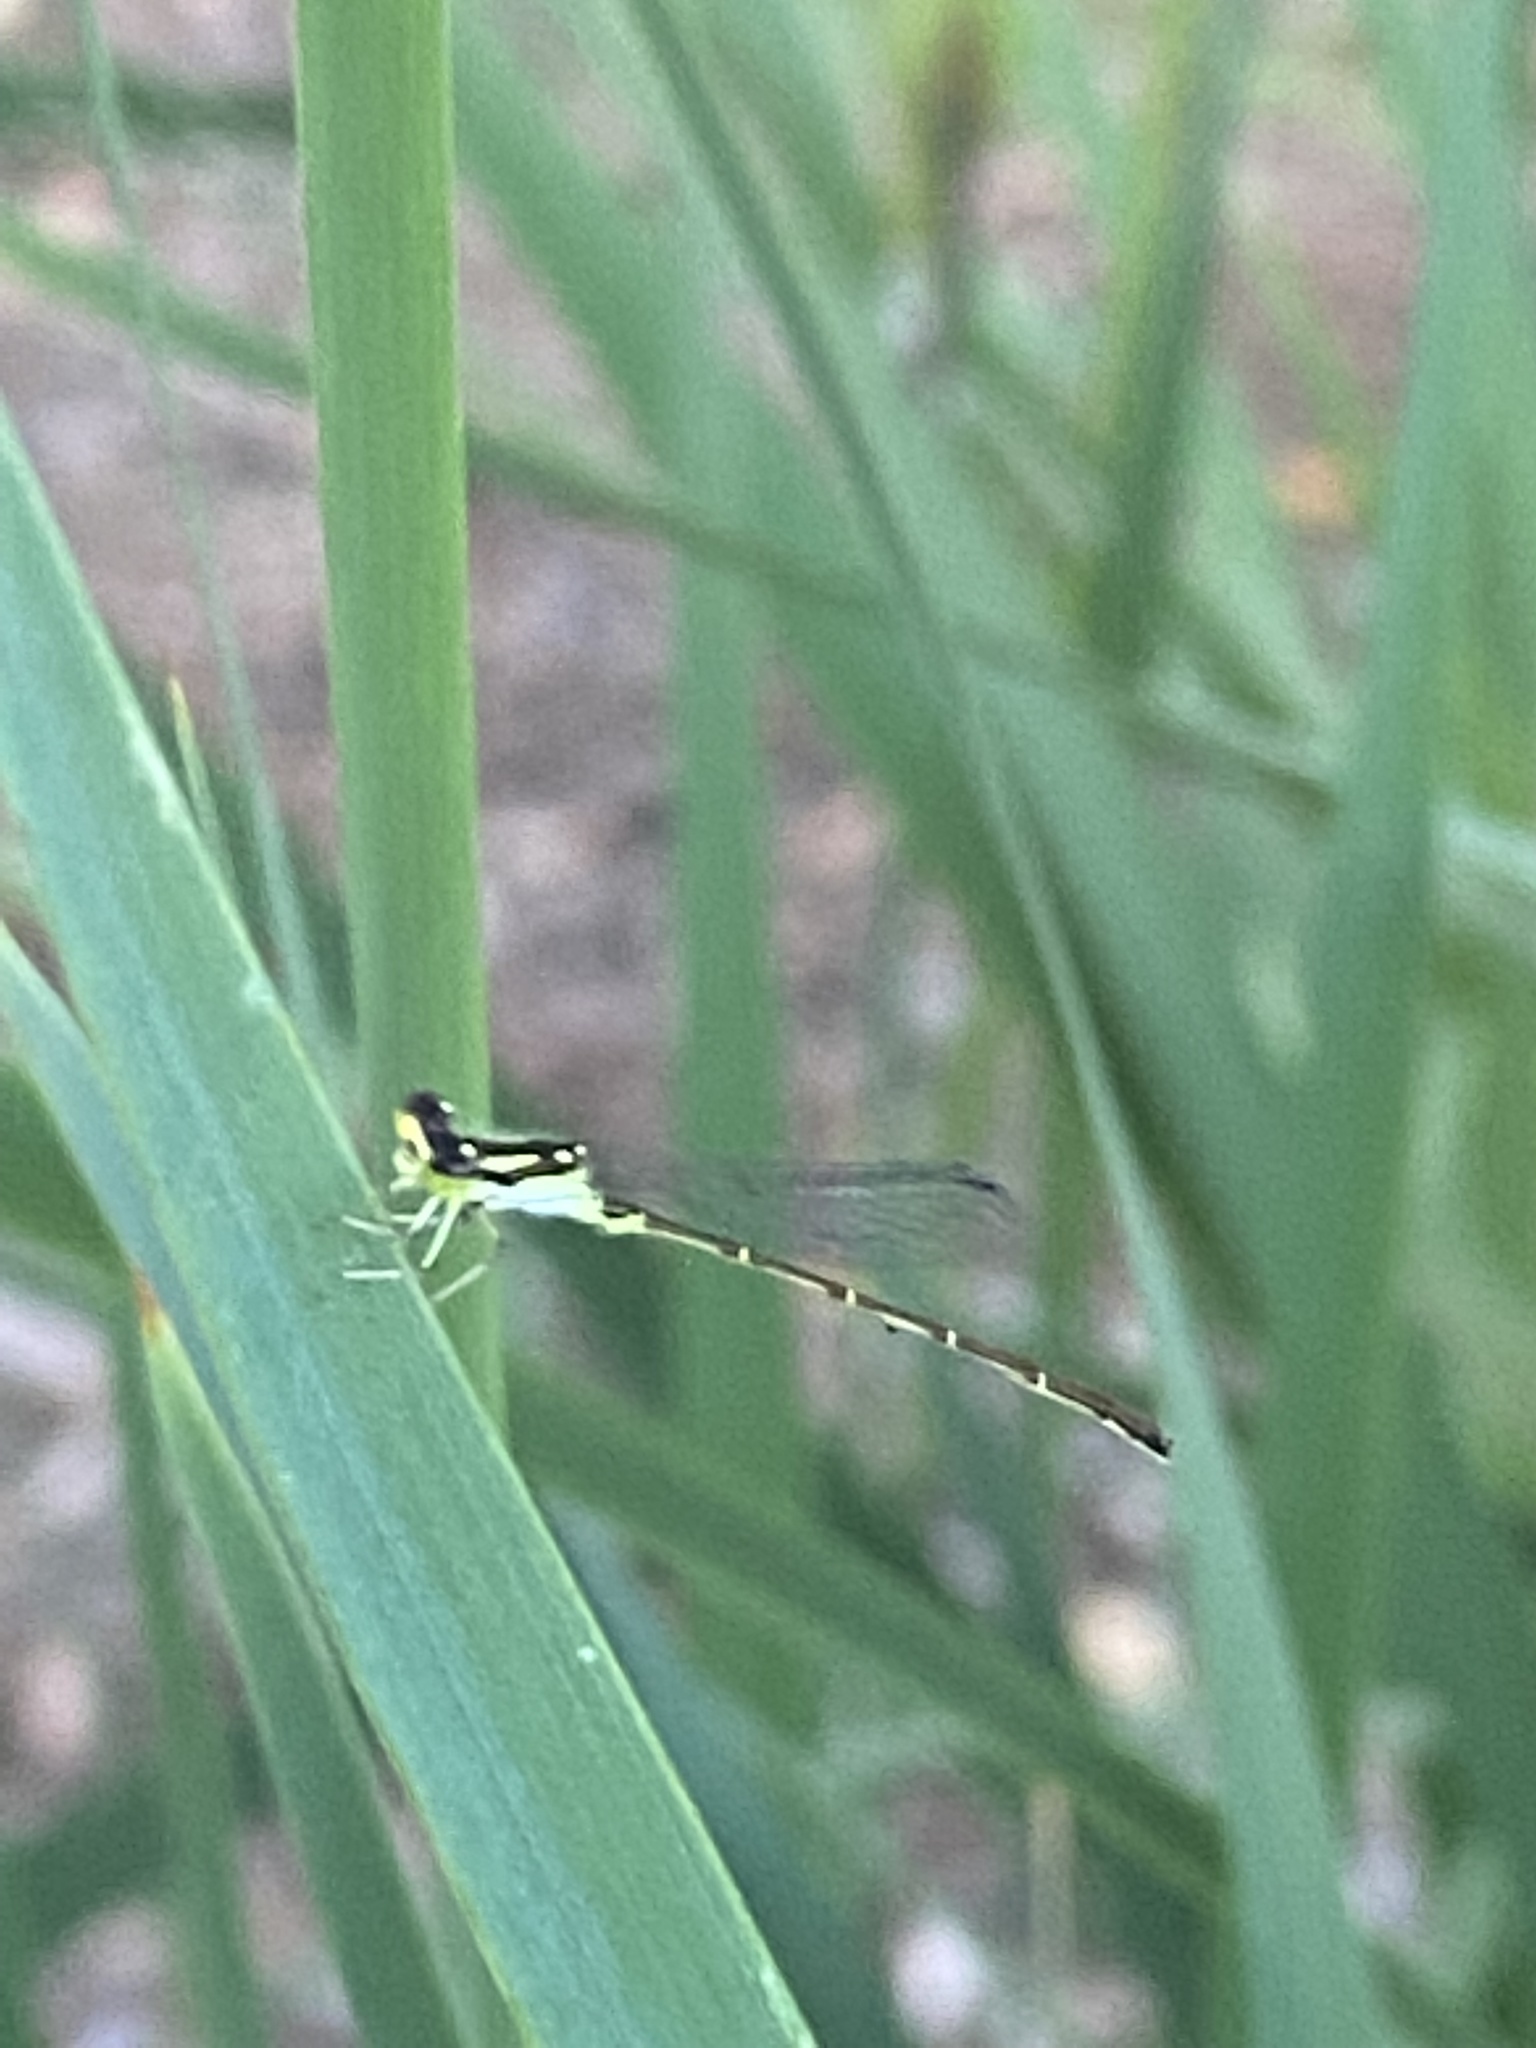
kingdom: Animalia
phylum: Arthropoda
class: Insecta
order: Odonata
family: Coenagrionidae
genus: Ischnura
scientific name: Ischnura posita
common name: Fragile forktail
